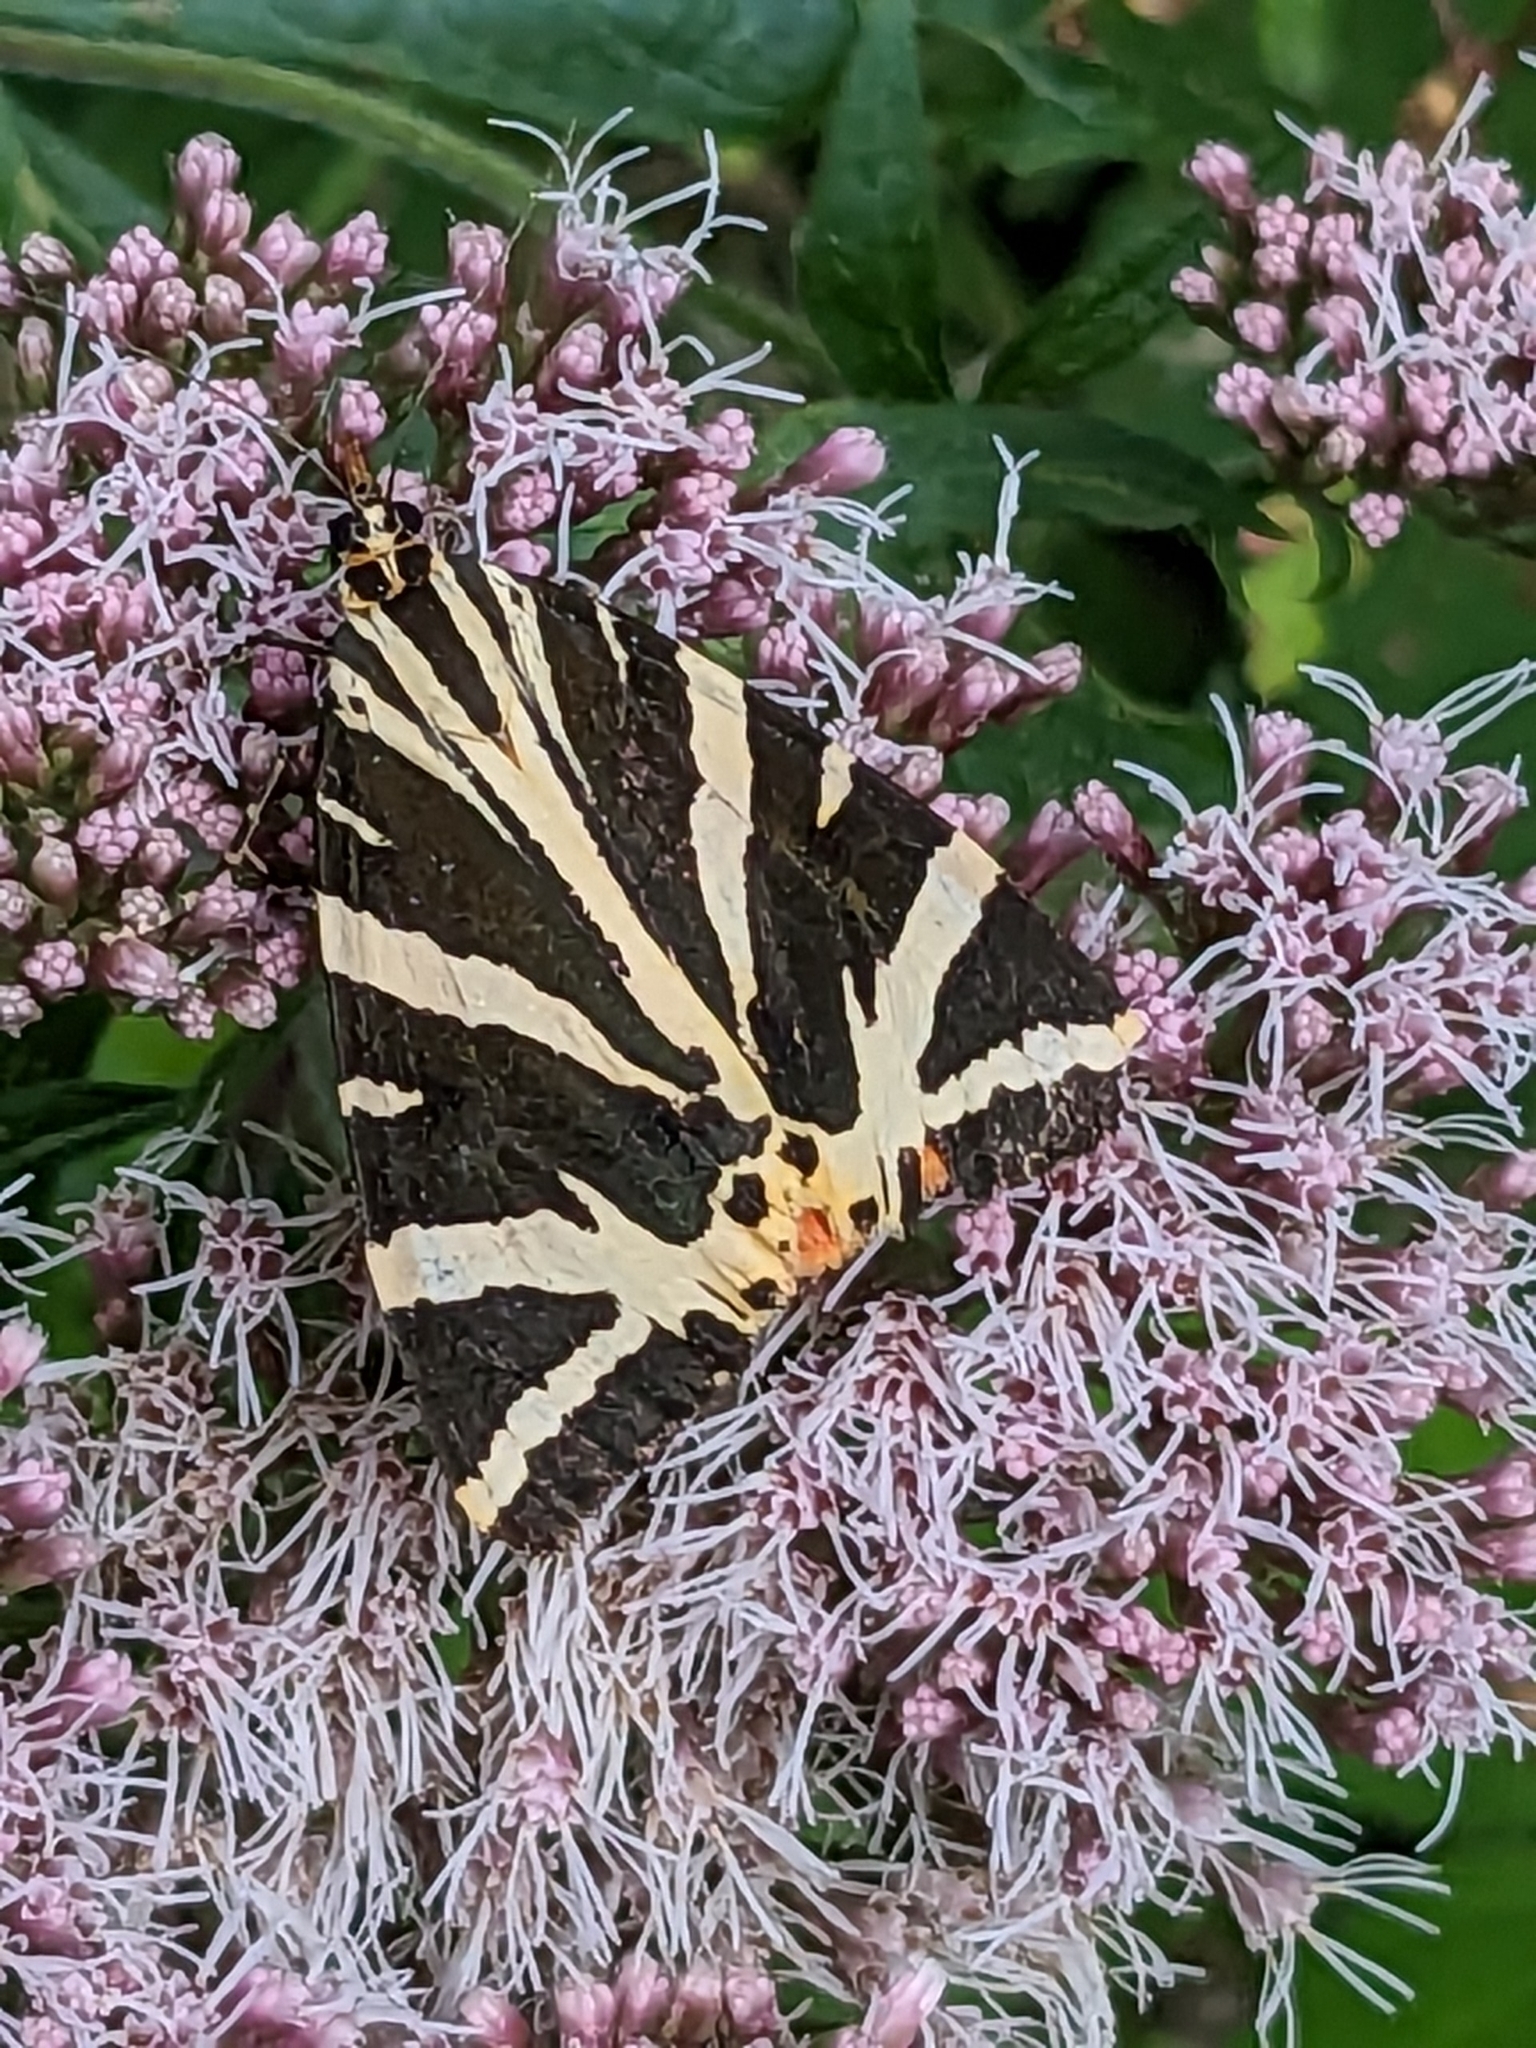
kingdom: Animalia
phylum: Arthropoda
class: Insecta
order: Lepidoptera
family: Erebidae
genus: Euplagia
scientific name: Euplagia quadripunctaria
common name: Jersey tiger
